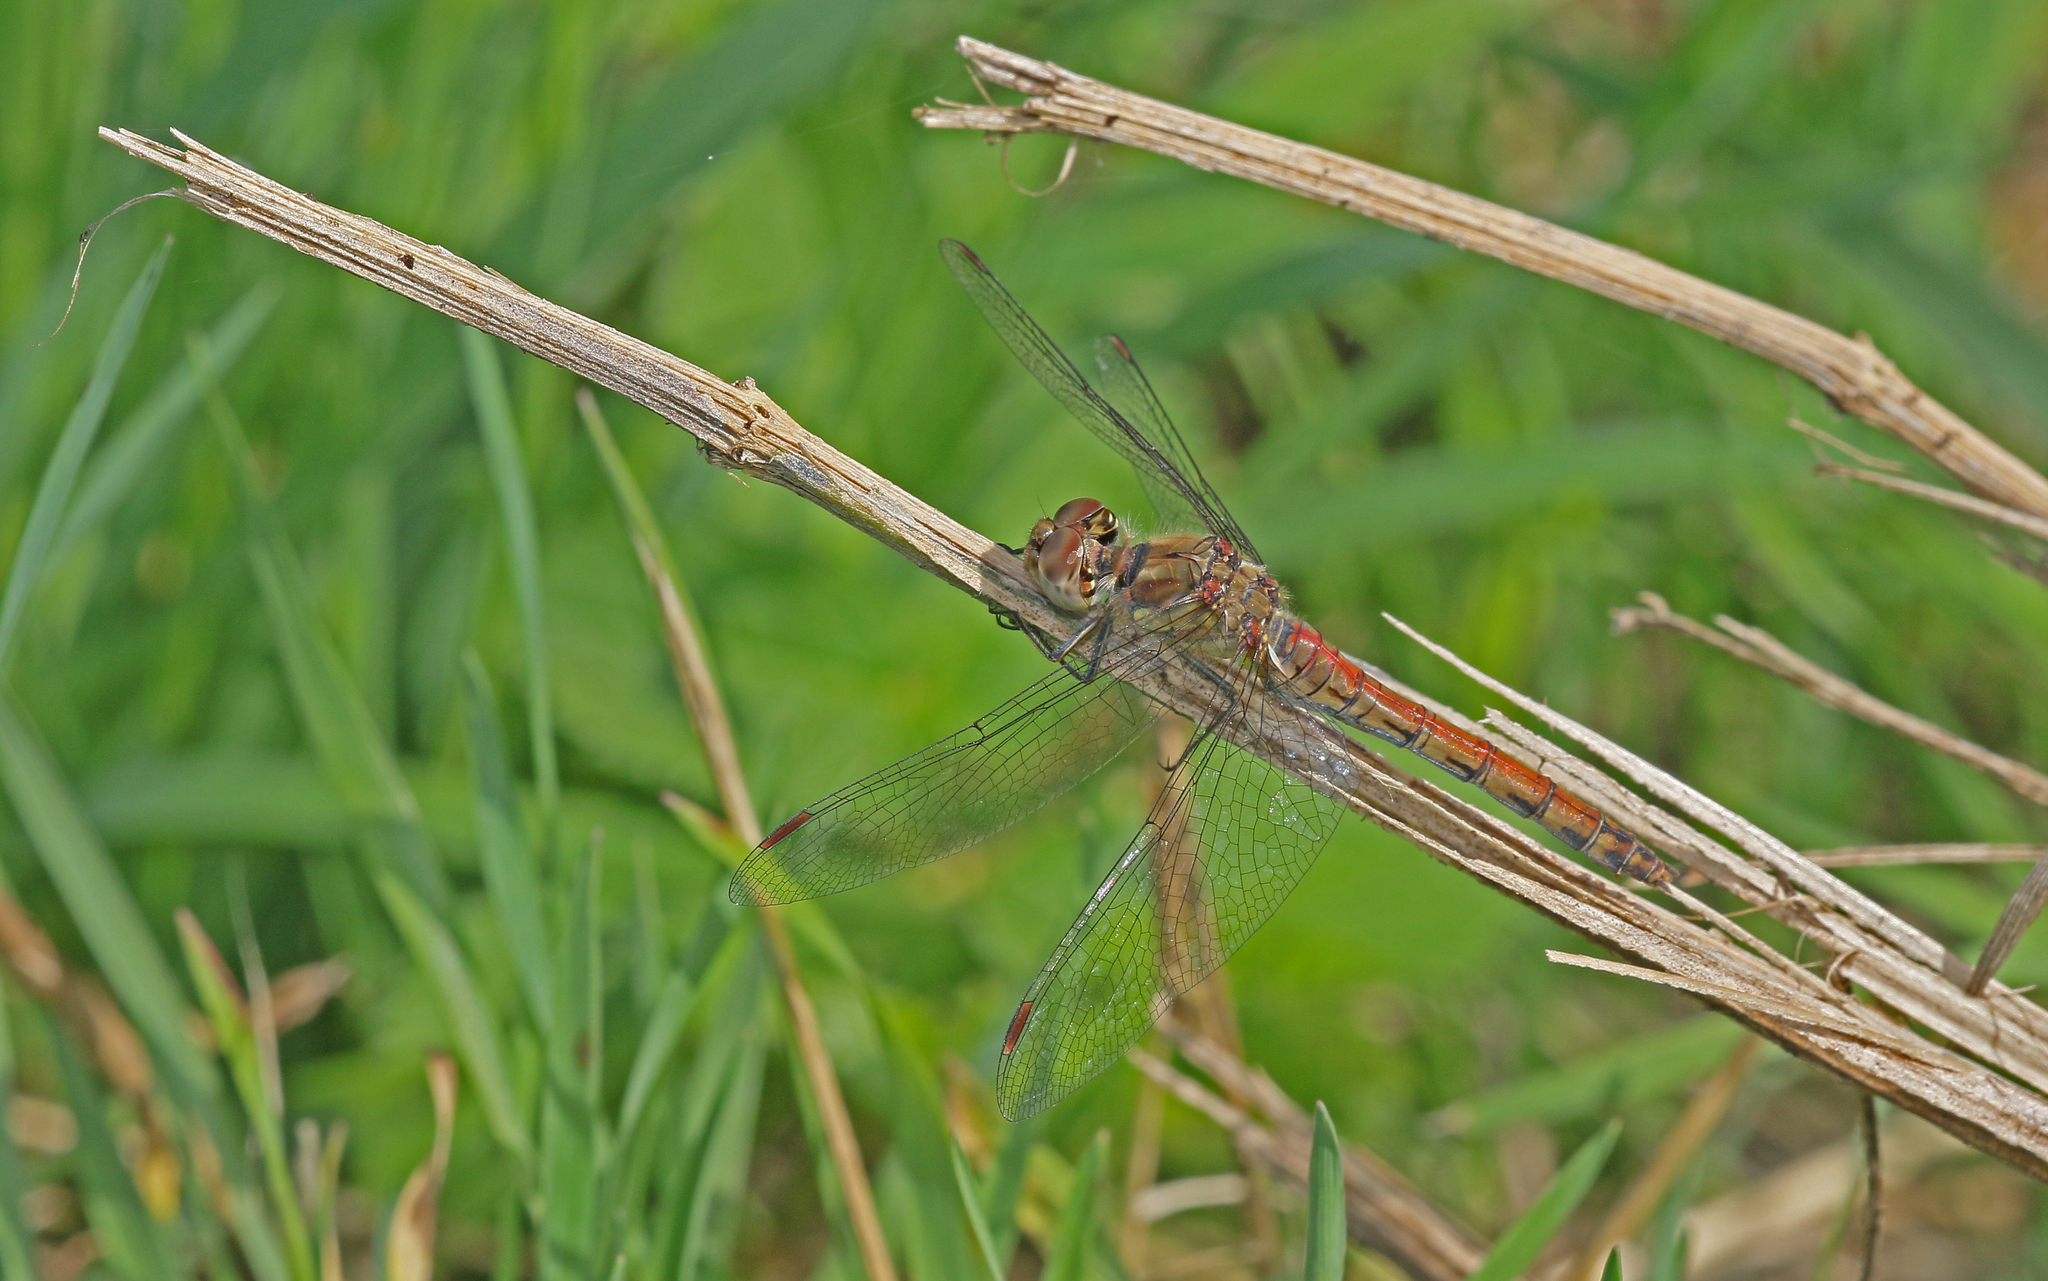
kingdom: Animalia
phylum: Arthropoda
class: Insecta
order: Odonata
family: Libellulidae
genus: Sympetrum
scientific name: Sympetrum striolatum
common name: Common darter
